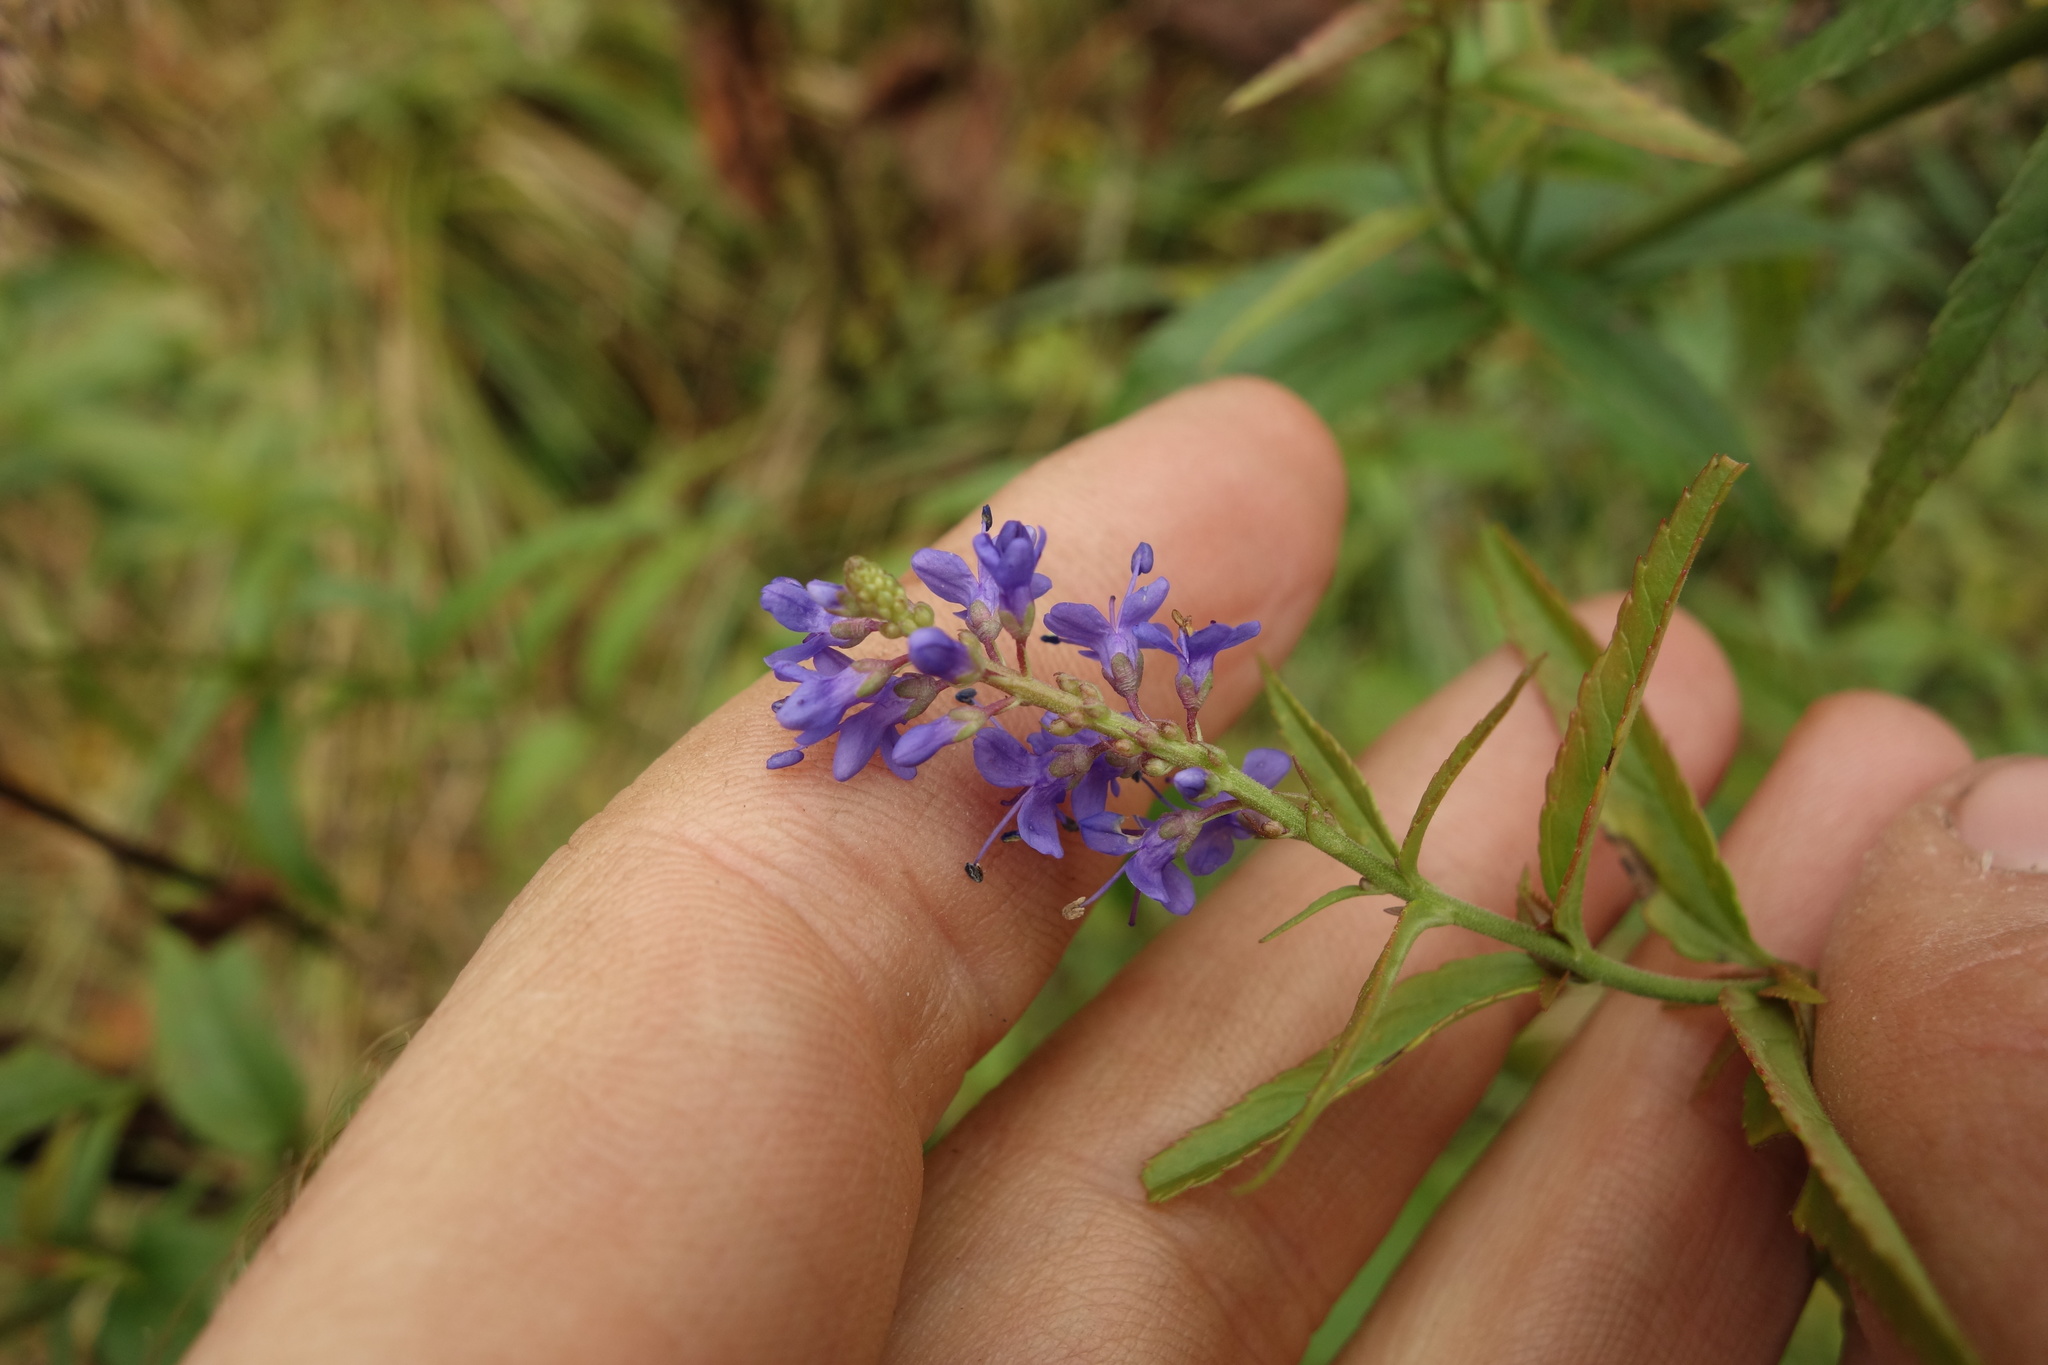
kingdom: Plantae
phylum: Tracheophyta
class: Magnoliopsida
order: Lamiales
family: Plantaginaceae
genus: Veronica
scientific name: Veronica longifolia
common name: Garden speedwell
